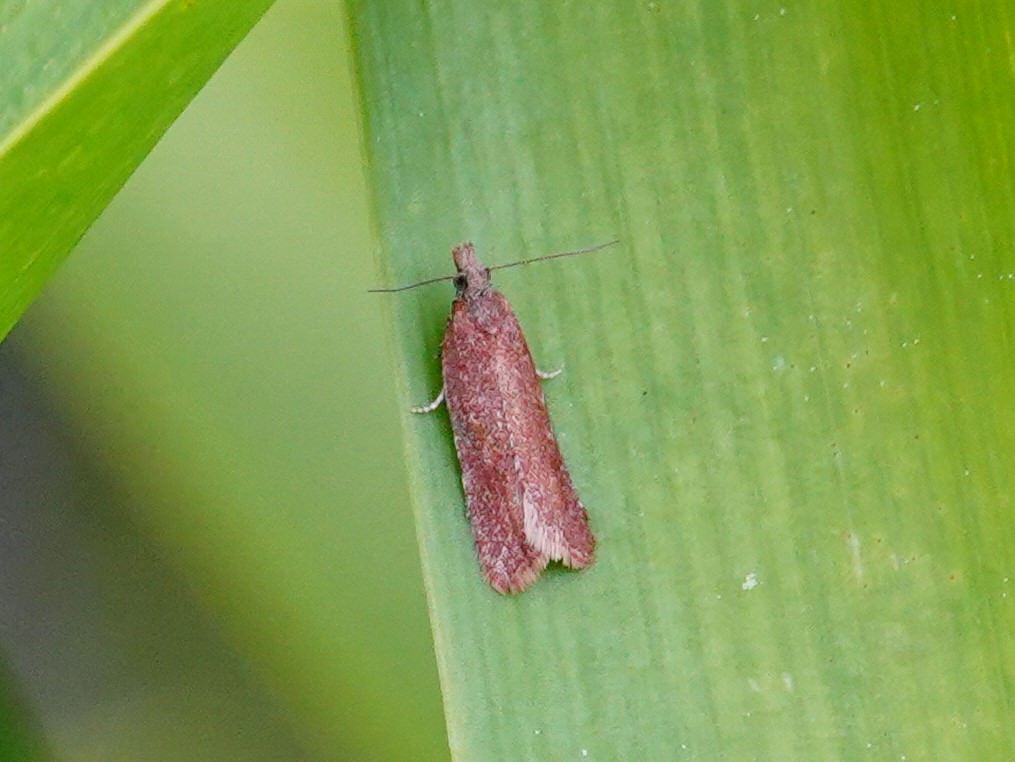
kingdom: Animalia
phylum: Arthropoda
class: Insecta
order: Lepidoptera
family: Tortricidae
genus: Capua
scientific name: Capua semiferana
